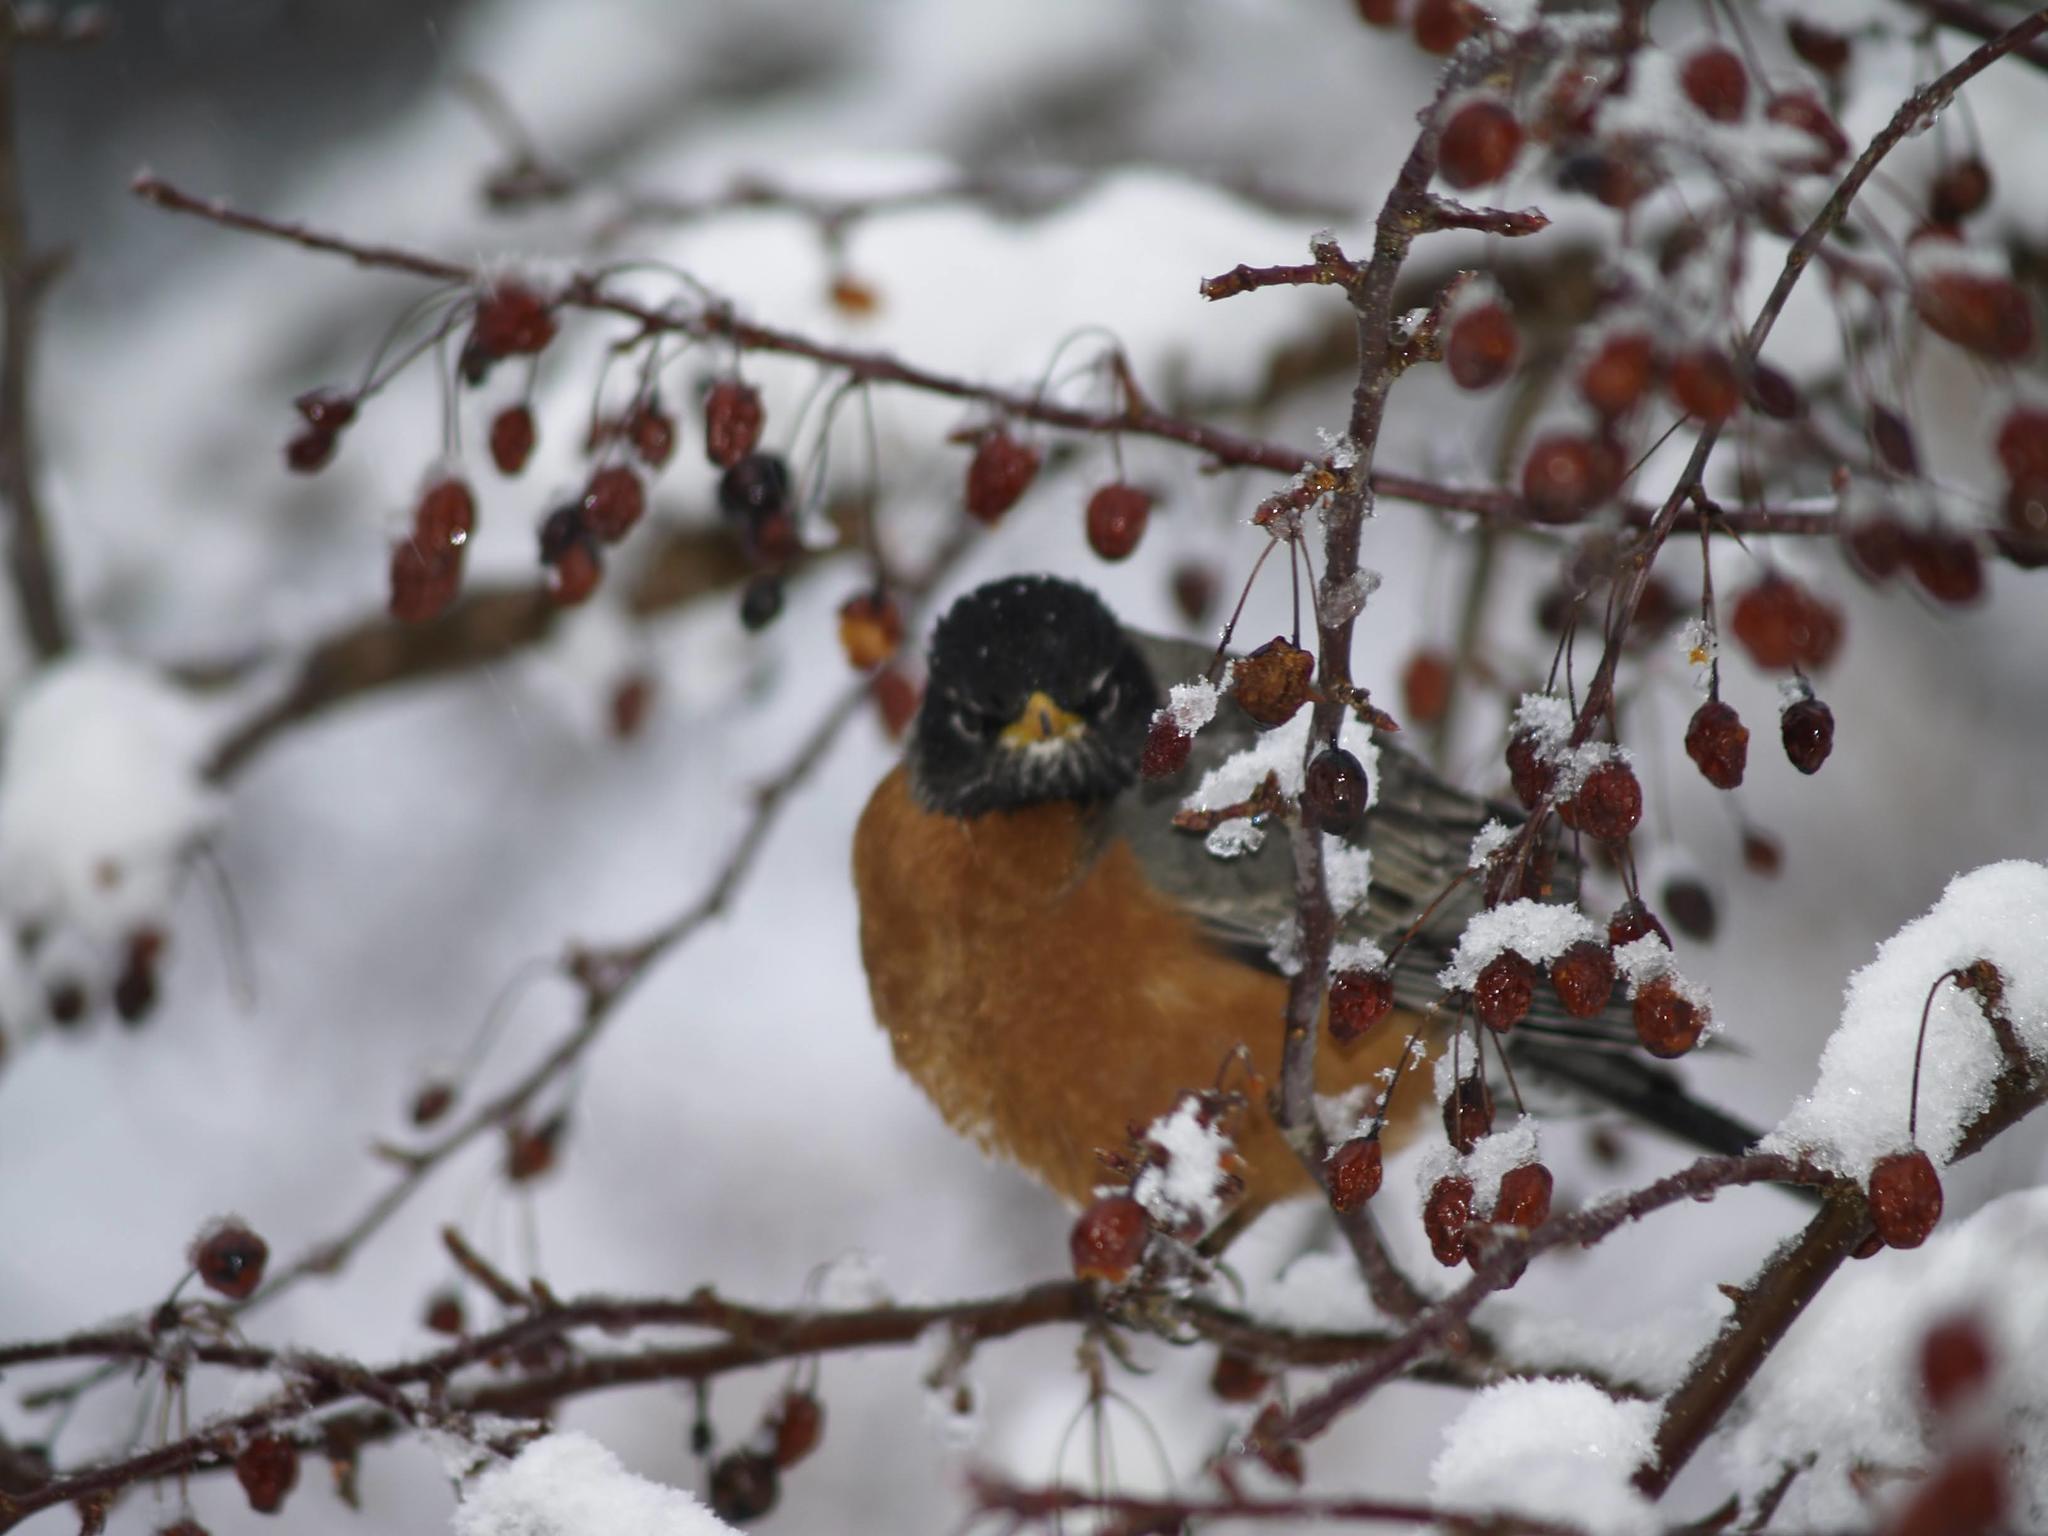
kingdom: Animalia
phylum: Chordata
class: Aves
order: Passeriformes
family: Turdidae
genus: Turdus
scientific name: Turdus migratorius
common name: American robin
